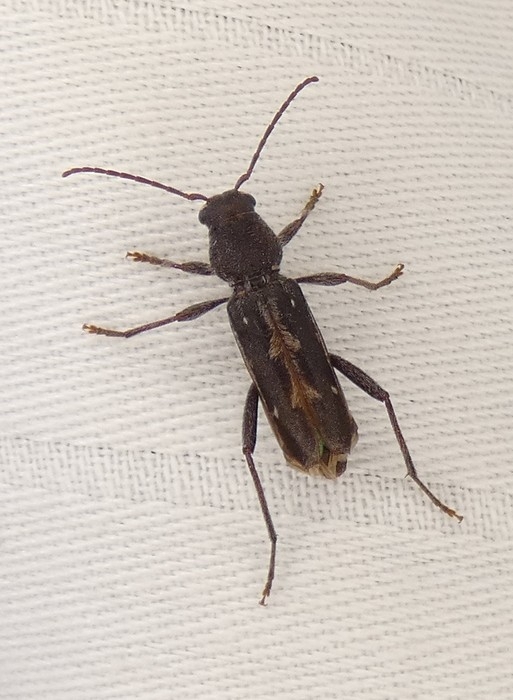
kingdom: Animalia
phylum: Arthropoda
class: Insecta
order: Coleoptera
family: Cerambycidae
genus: Xylotrechus
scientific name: Xylotrechus sagittatus
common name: Arrowhead borer
